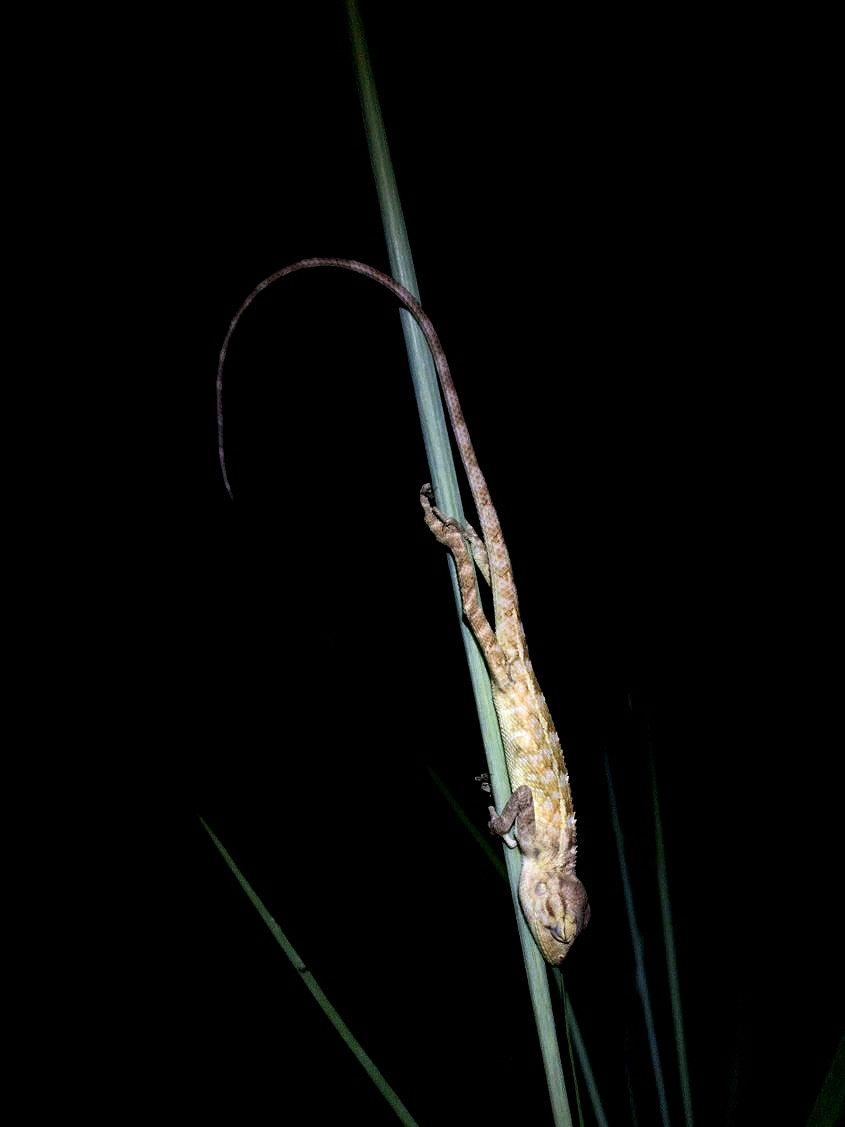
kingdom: Animalia
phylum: Chordata
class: Squamata
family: Agamidae
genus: Calotes
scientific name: Calotes versicolor
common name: Oriental garden lizard
